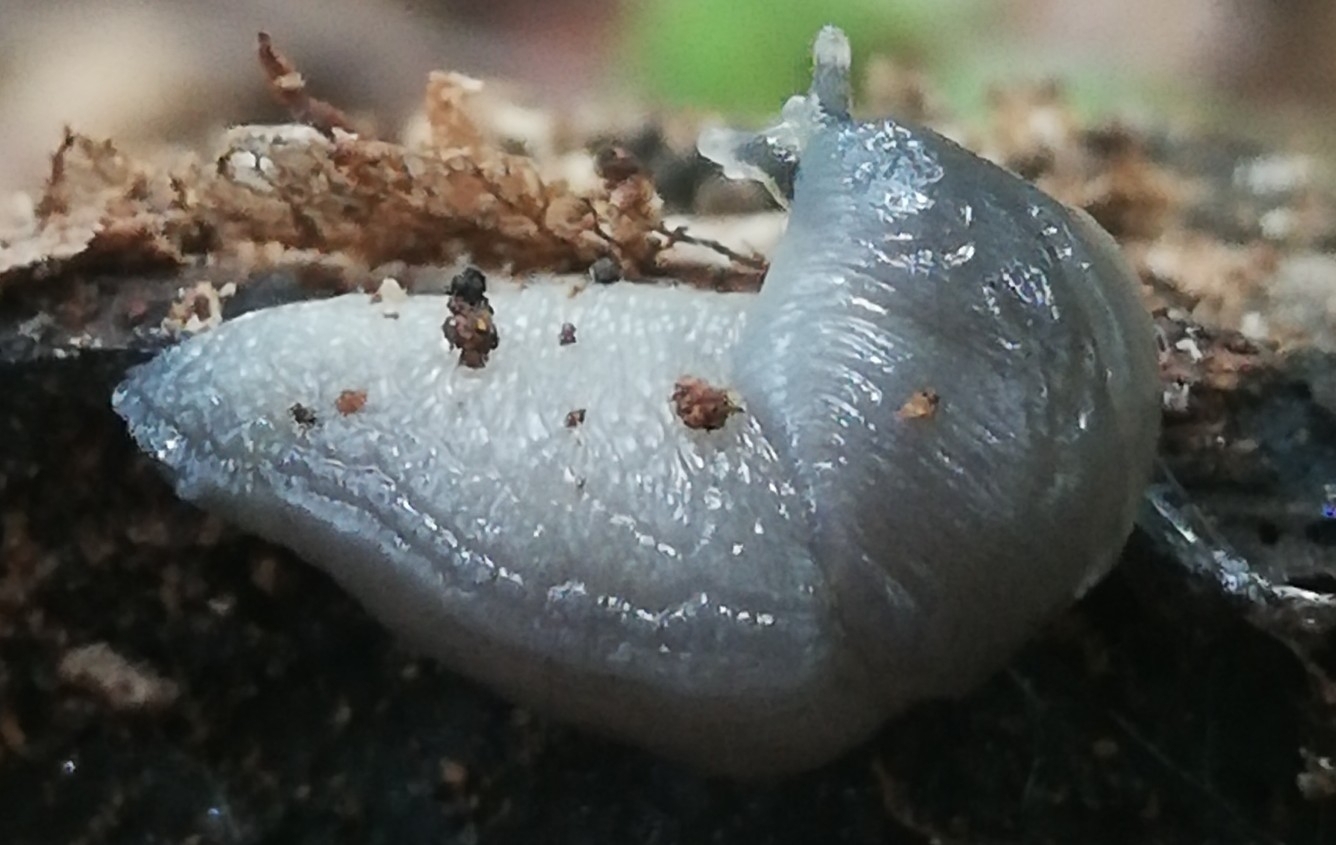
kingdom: Animalia
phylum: Mollusca
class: Gastropoda
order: Stylommatophora
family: Boettgerillidae
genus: Boettgerilla
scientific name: Boettgerilla pallens
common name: Worm slug
